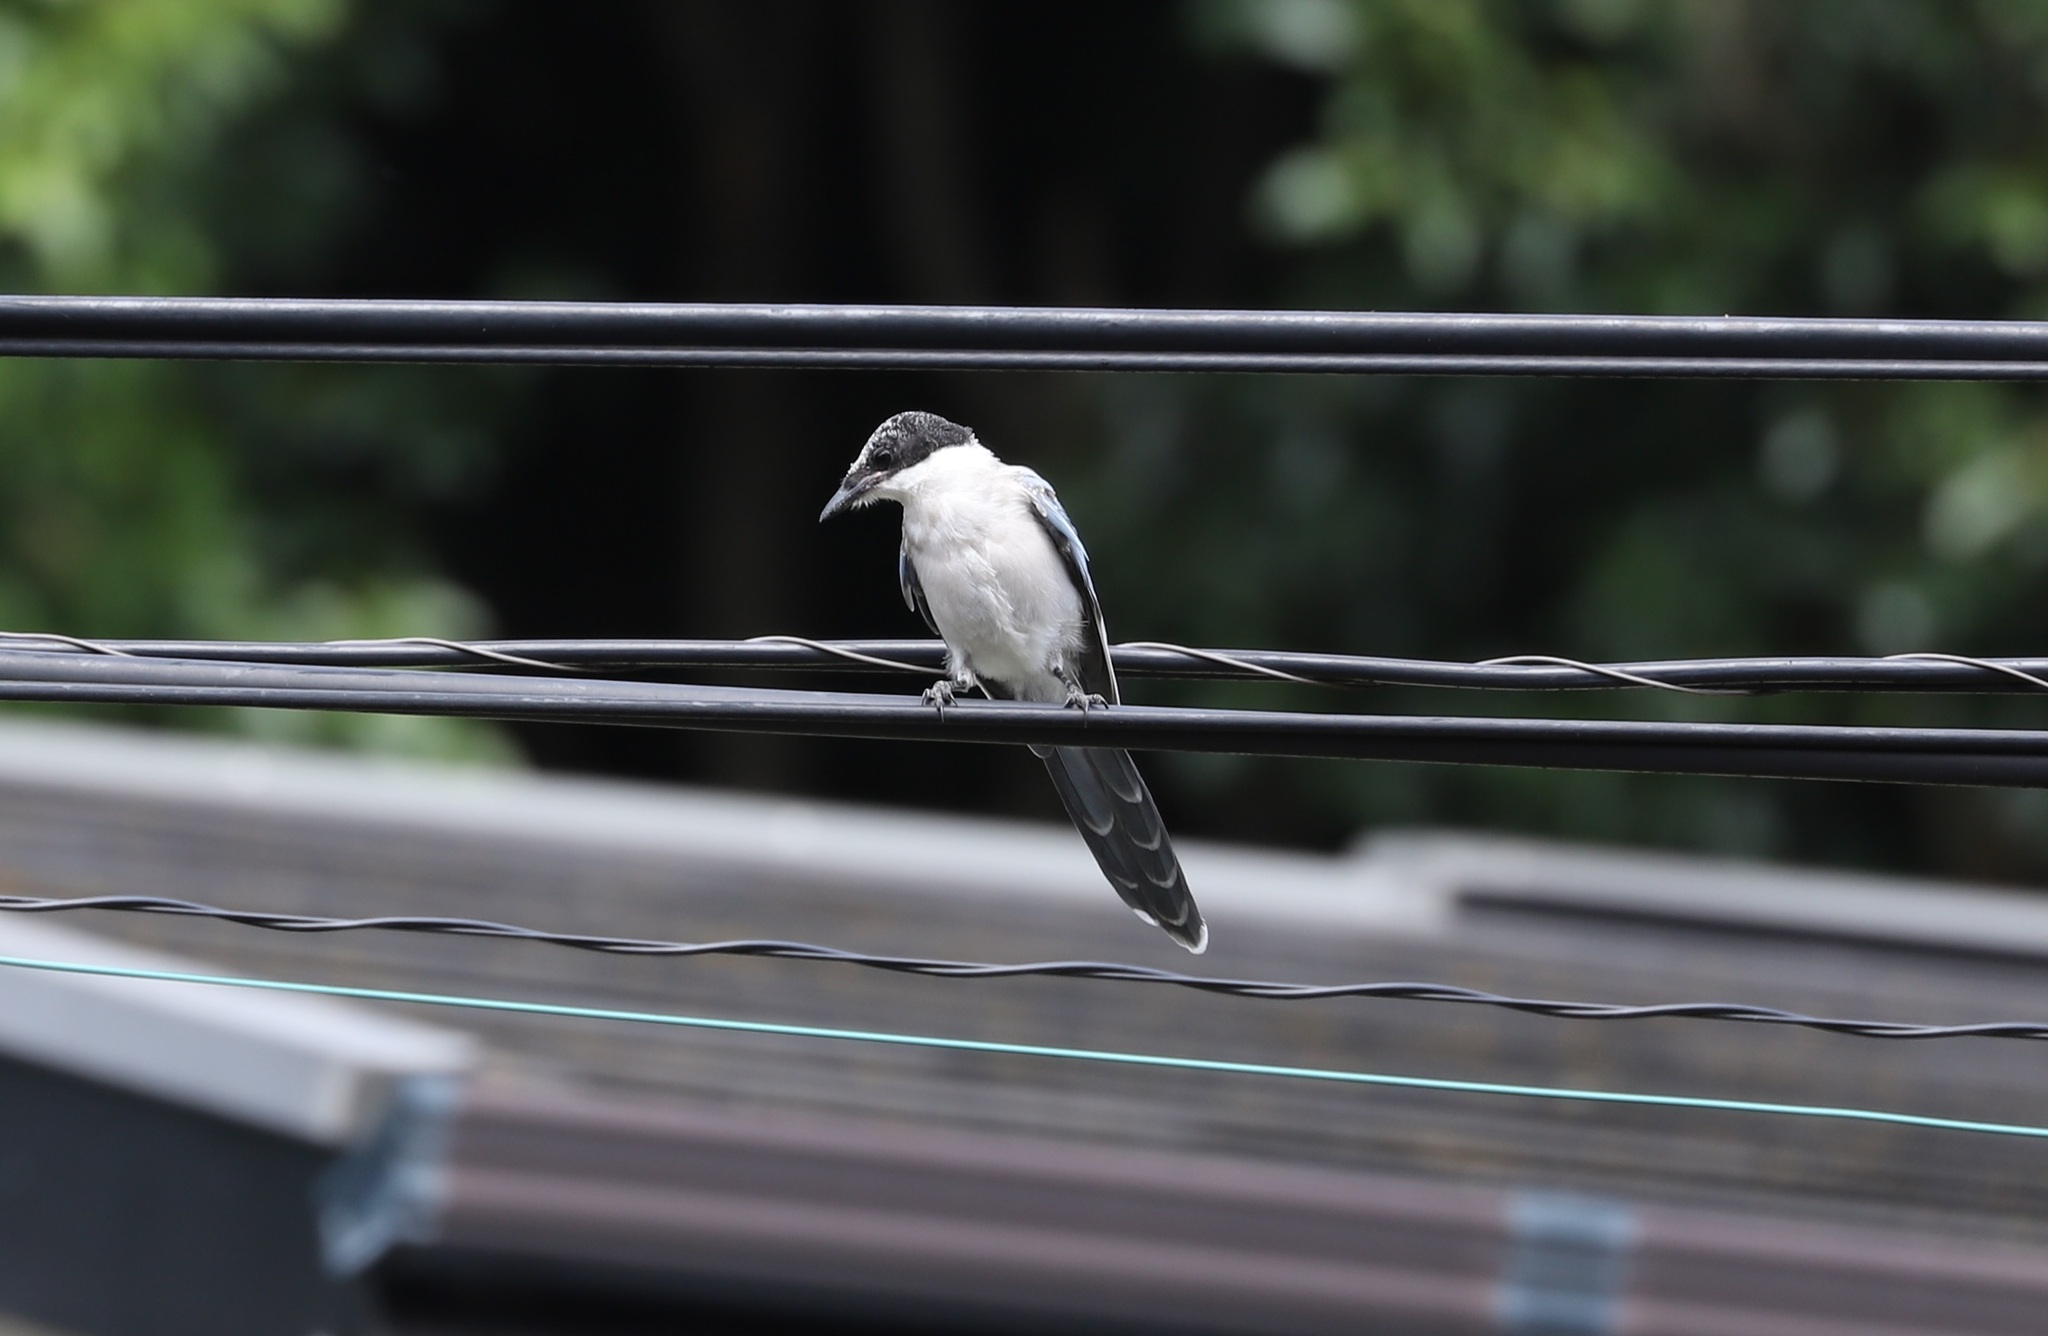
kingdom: Animalia
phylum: Chordata
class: Aves
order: Passeriformes
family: Corvidae
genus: Cyanopica
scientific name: Cyanopica cyanus
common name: Azure-winged magpie
